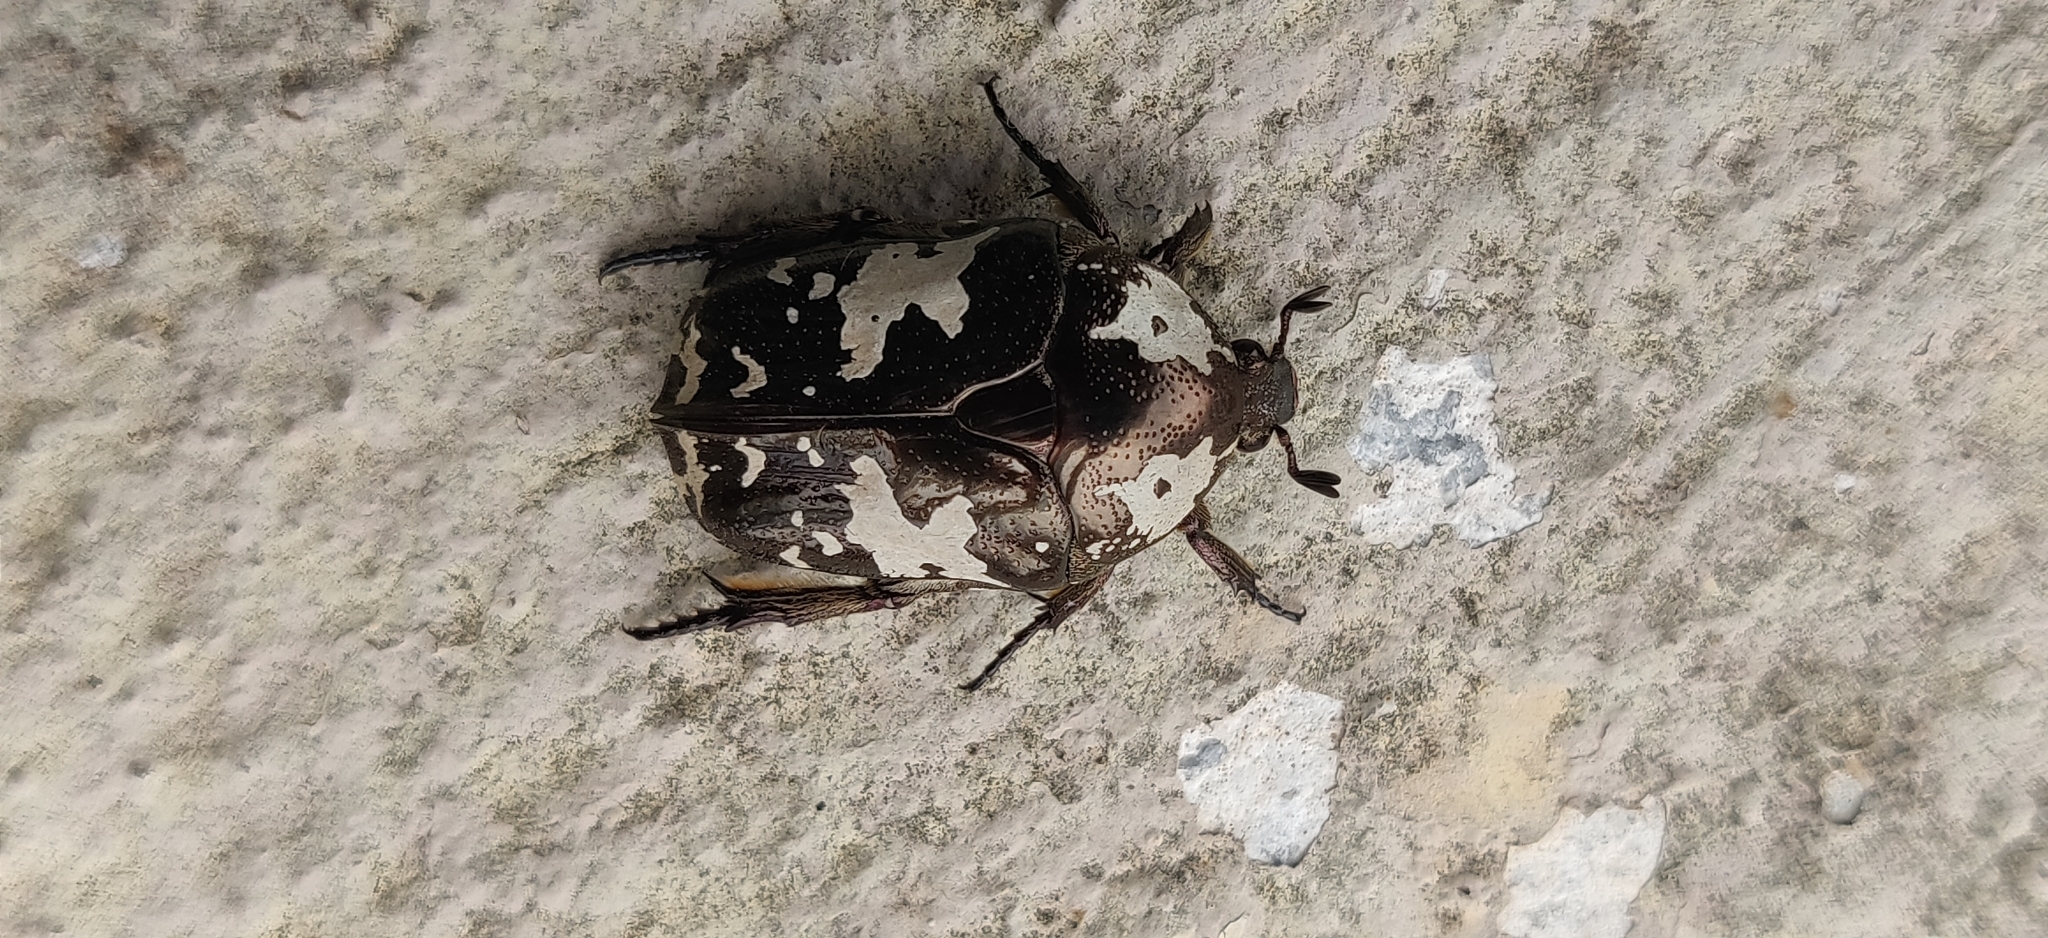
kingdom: Animalia
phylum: Arthropoda
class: Insecta
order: Coleoptera
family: Scarabaeidae
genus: Protaetia
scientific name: Protaetia aurichalcea
